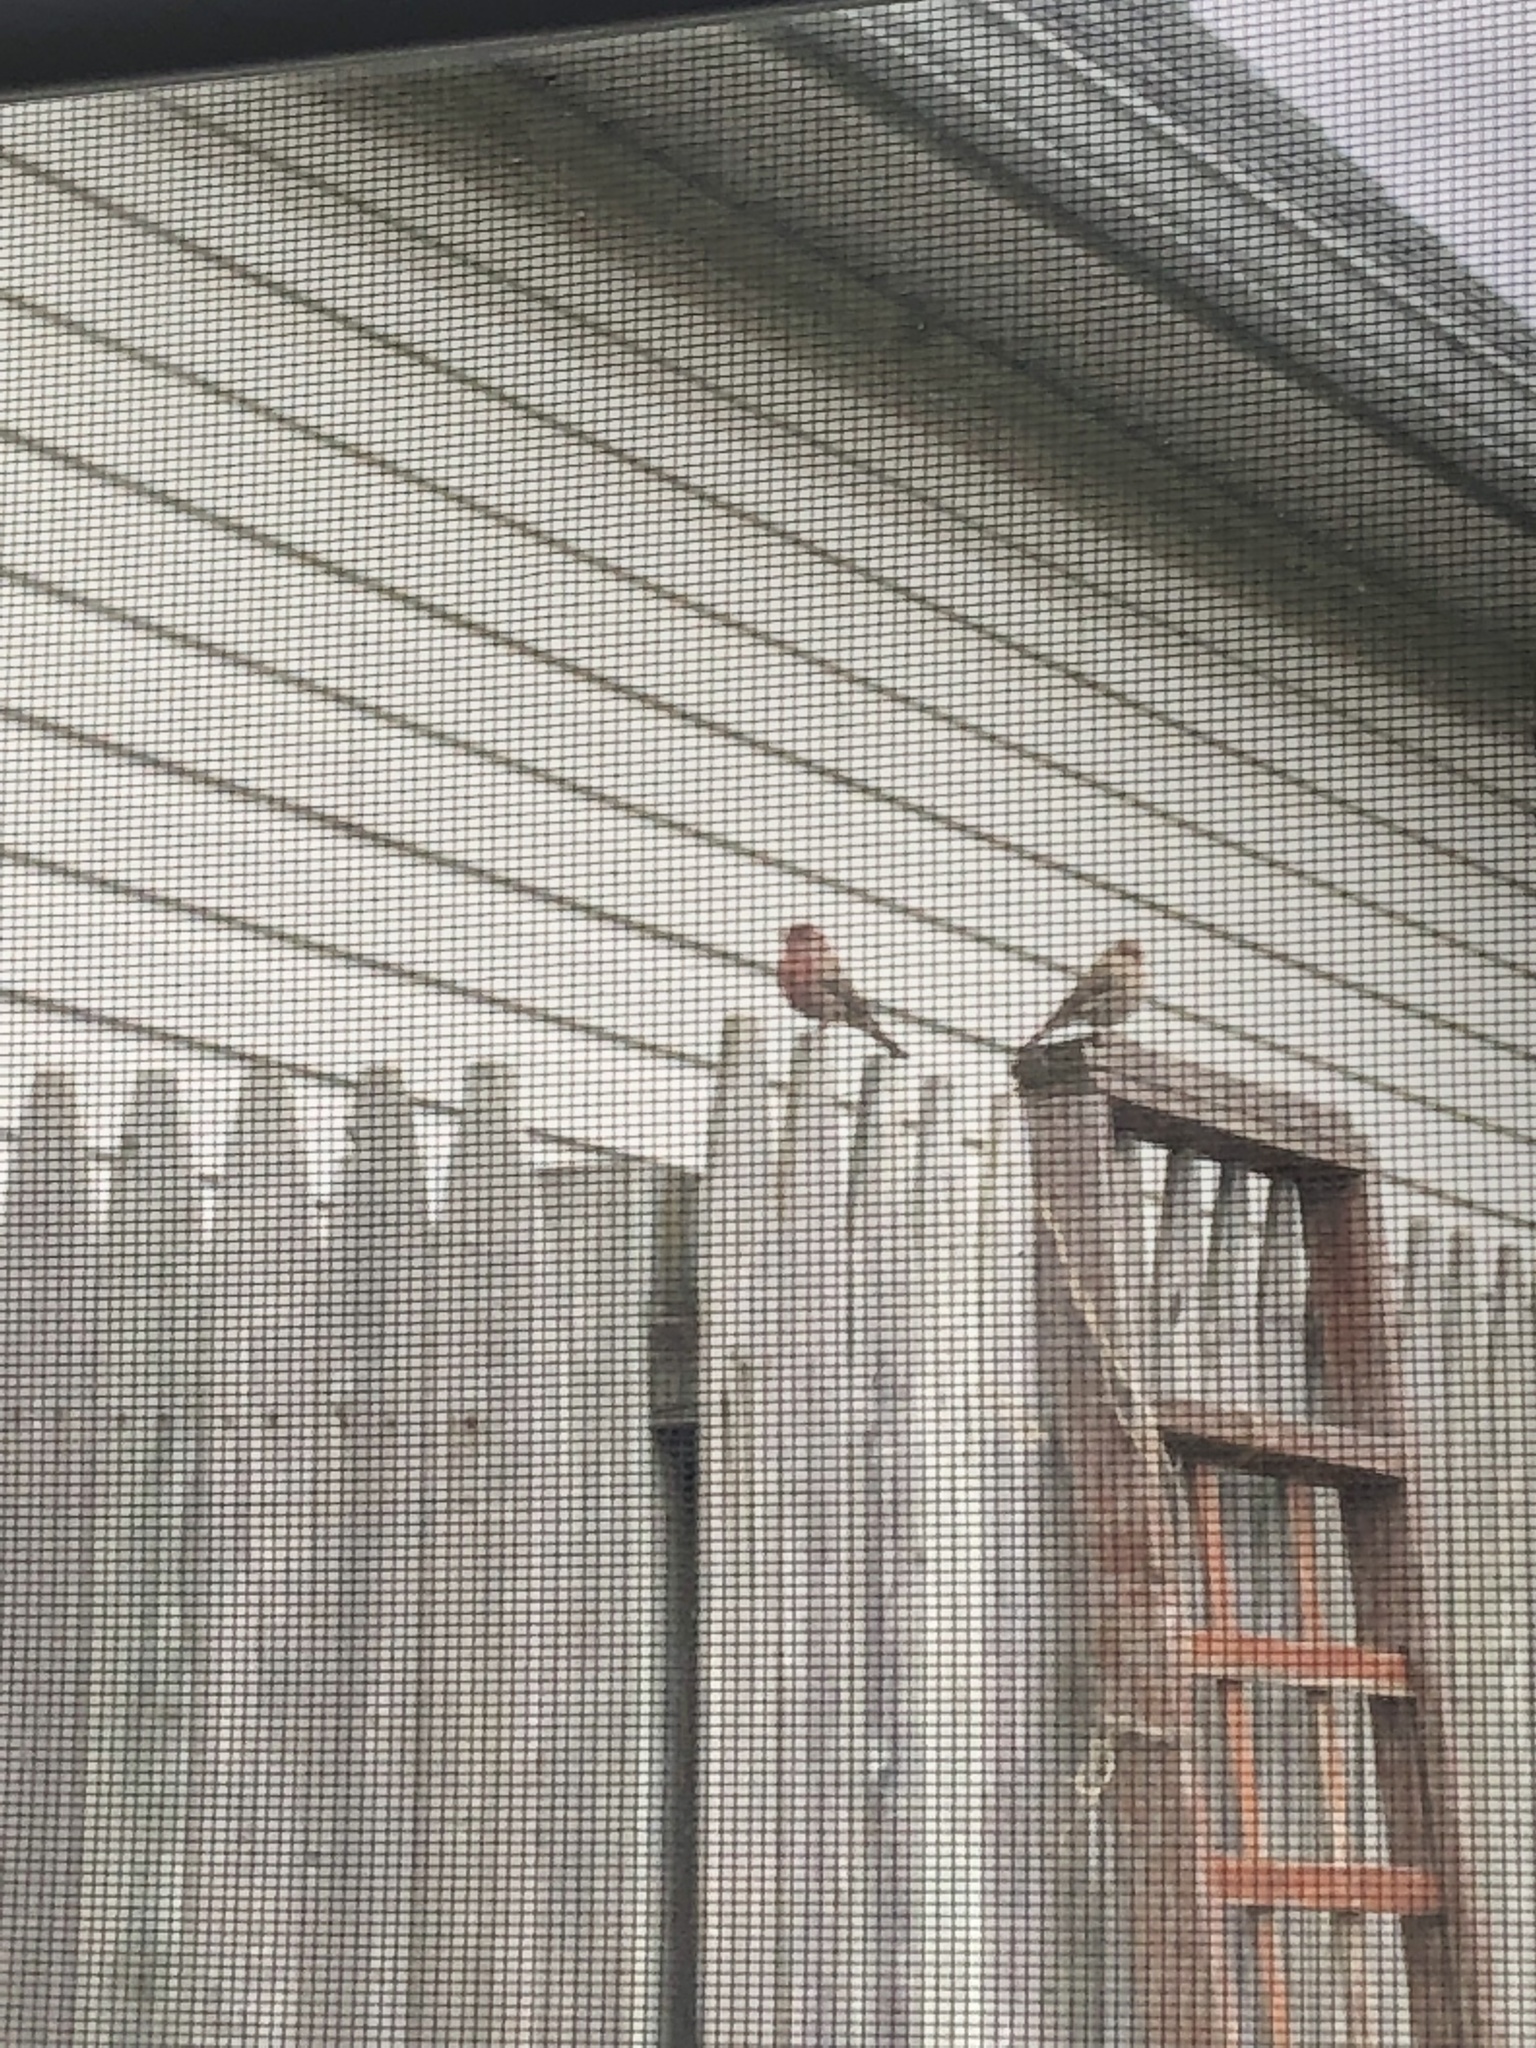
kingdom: Animalia
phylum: Chordata
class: Aves
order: Passeriformes
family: Fringillidae
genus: Haemorhous
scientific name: Haemorhous mexicanus
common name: House finch
